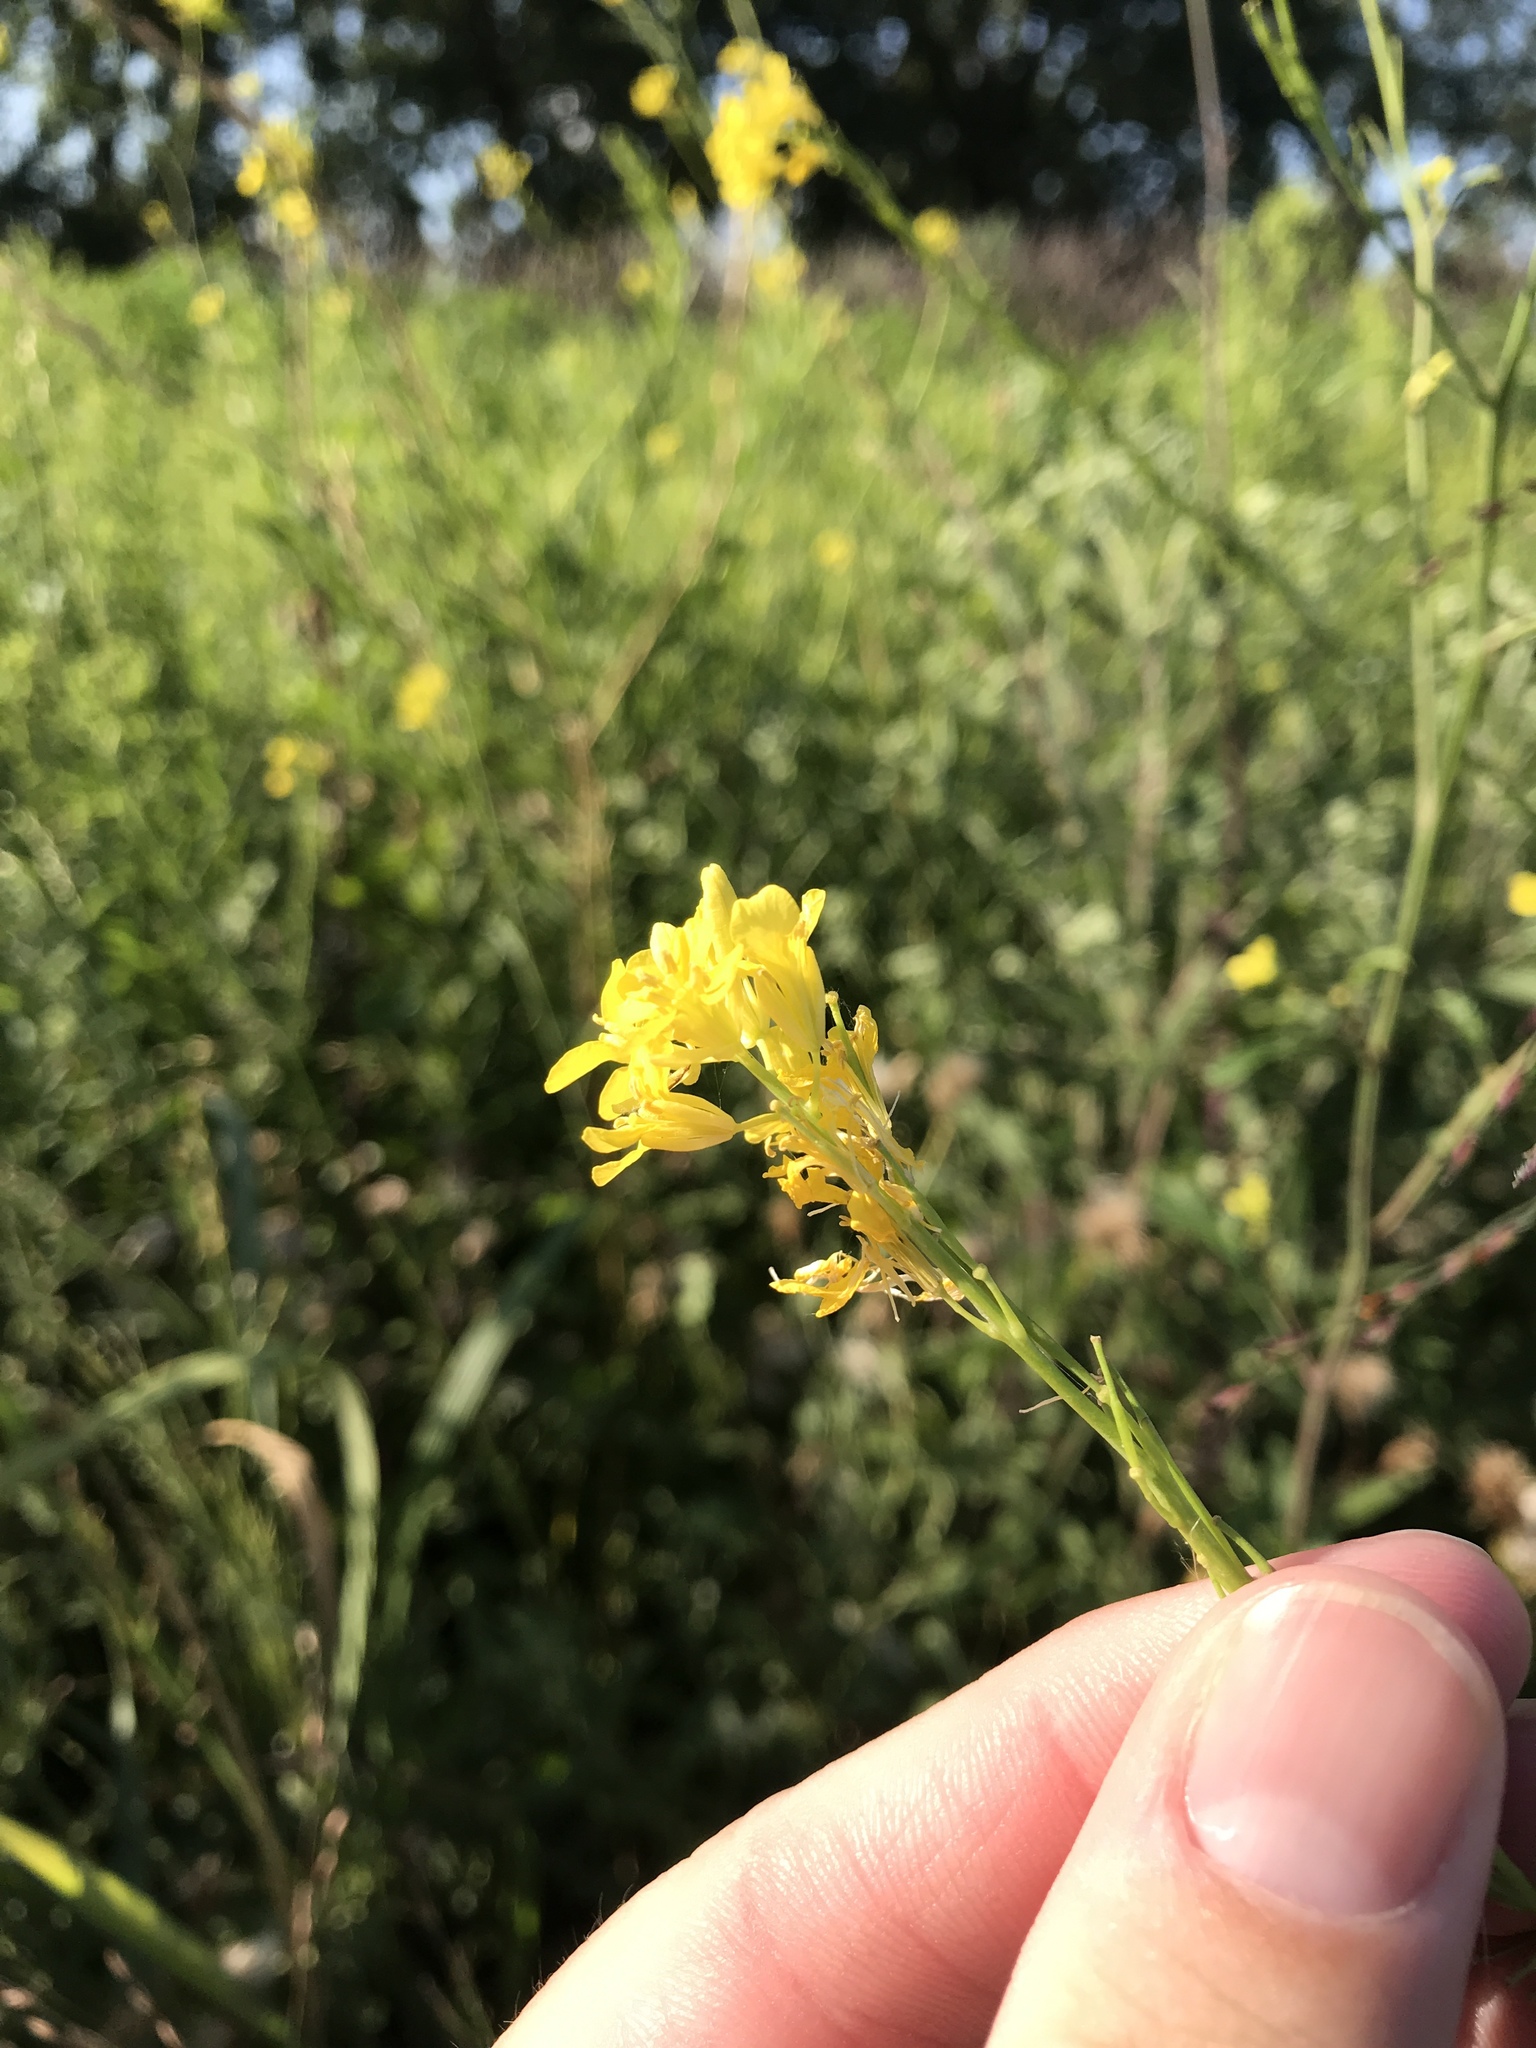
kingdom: Plantae
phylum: Tracheophyta
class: Magnoliopsida
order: Brassicales
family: Brassicaceae
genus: Brassica
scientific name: Brassica nigra
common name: Black mustard
